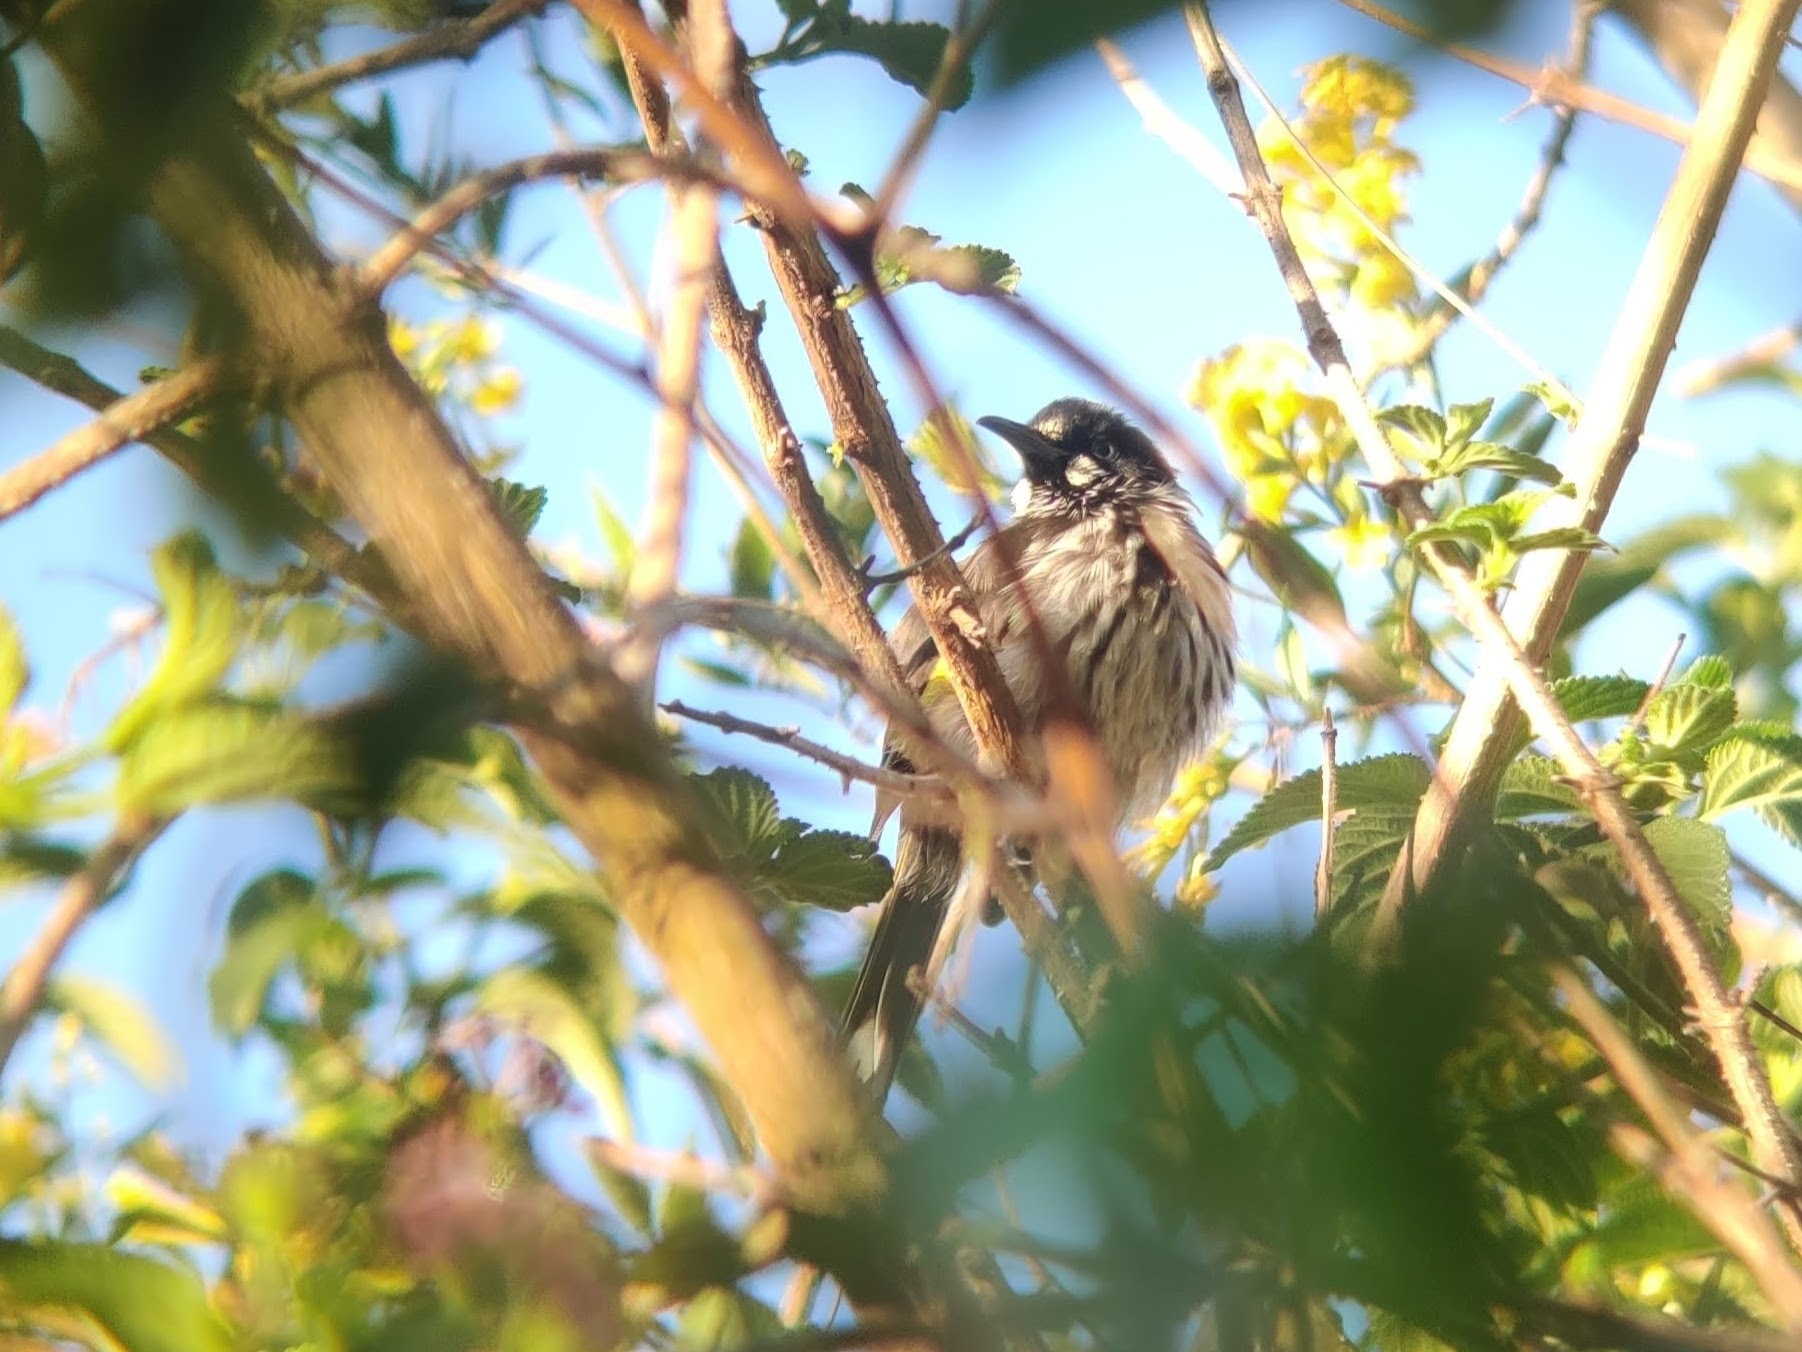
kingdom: Animalia
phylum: Chordata
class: Aves
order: Passeriformes
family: Meliphagidae
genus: Phylidonyris
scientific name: Phylidonyris novaehollandiae
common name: New holland honeyeater
